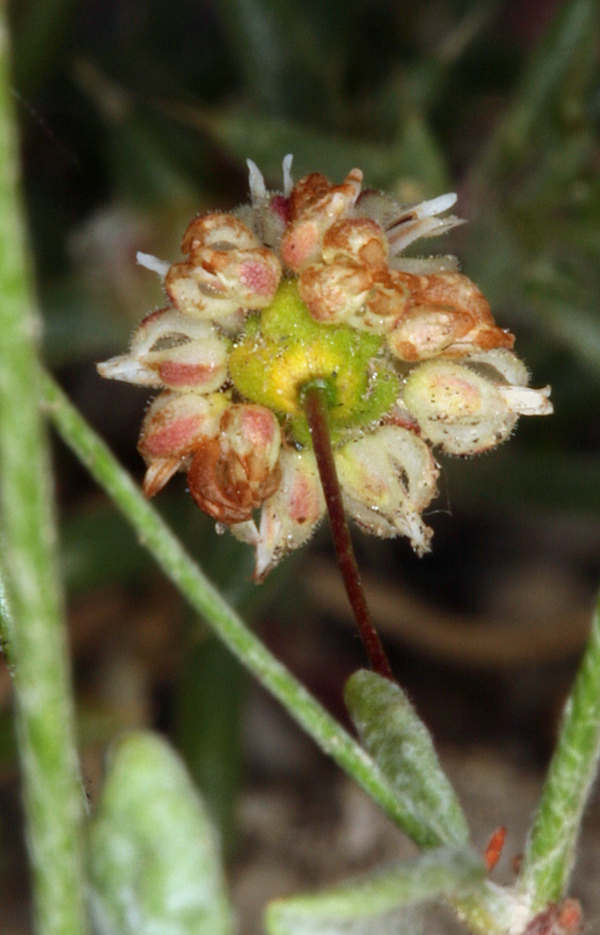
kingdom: Plantae
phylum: Tracheophyta
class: Magnoliopsida
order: Caryophyllales
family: Polygonaceae
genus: Eriogonum
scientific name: Eriogonum maculatum
